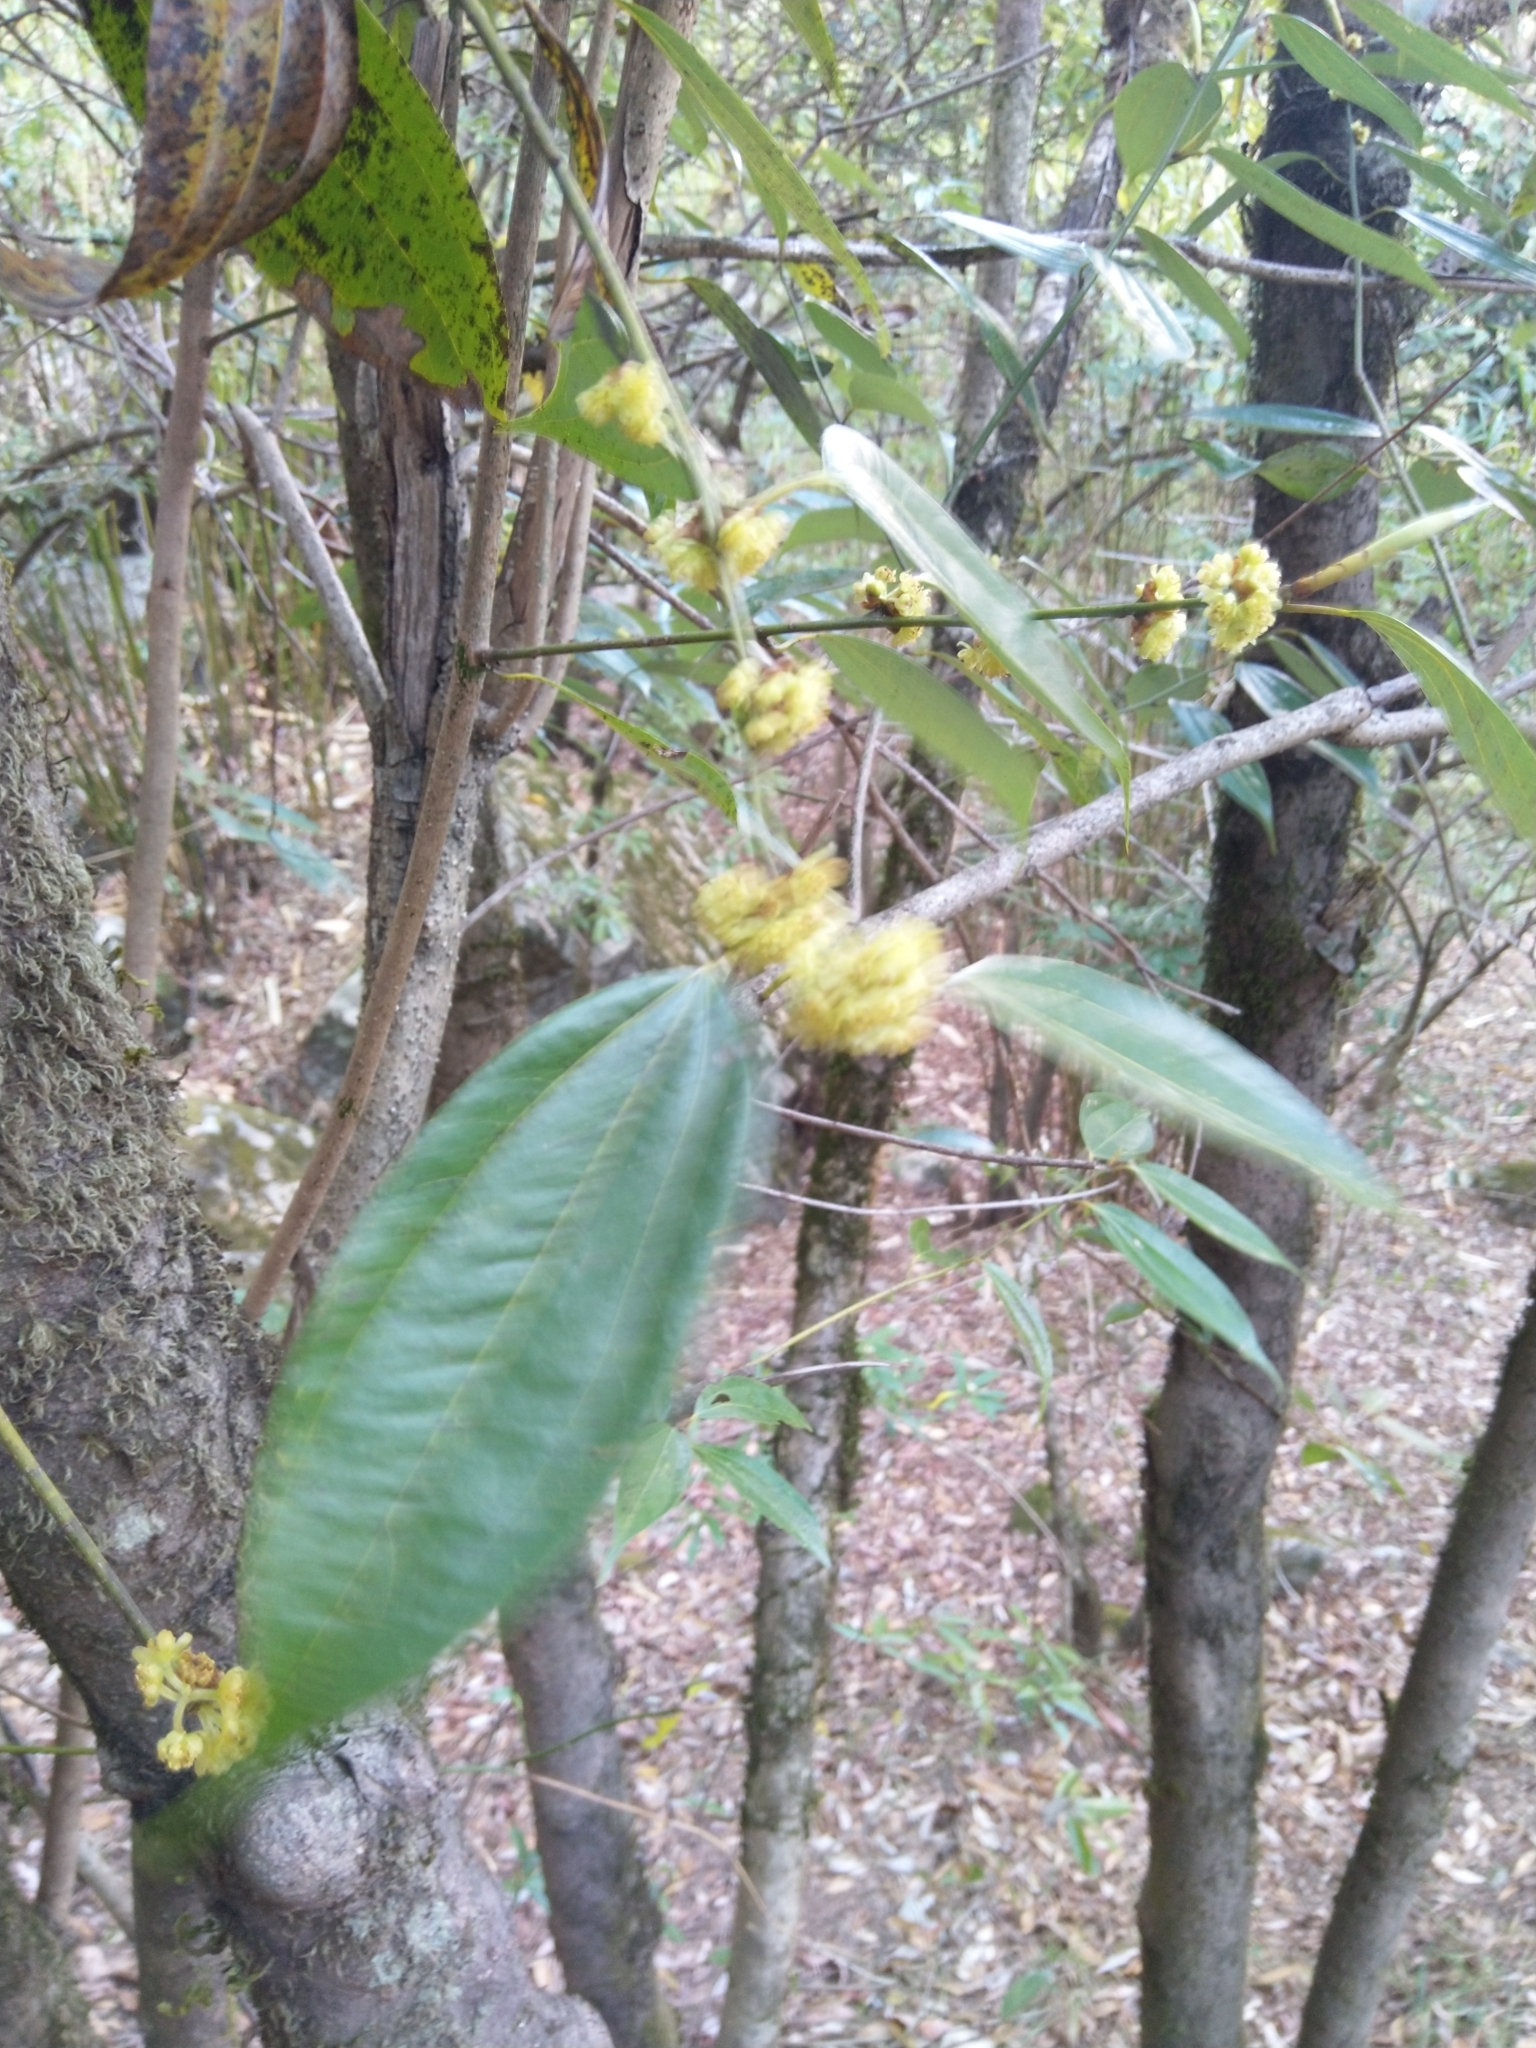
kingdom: Plantae
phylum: Tracheophyta
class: Magnoliopsida
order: Laurales
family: Lauraceae
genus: Lindera
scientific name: Lindera pulcherrima
